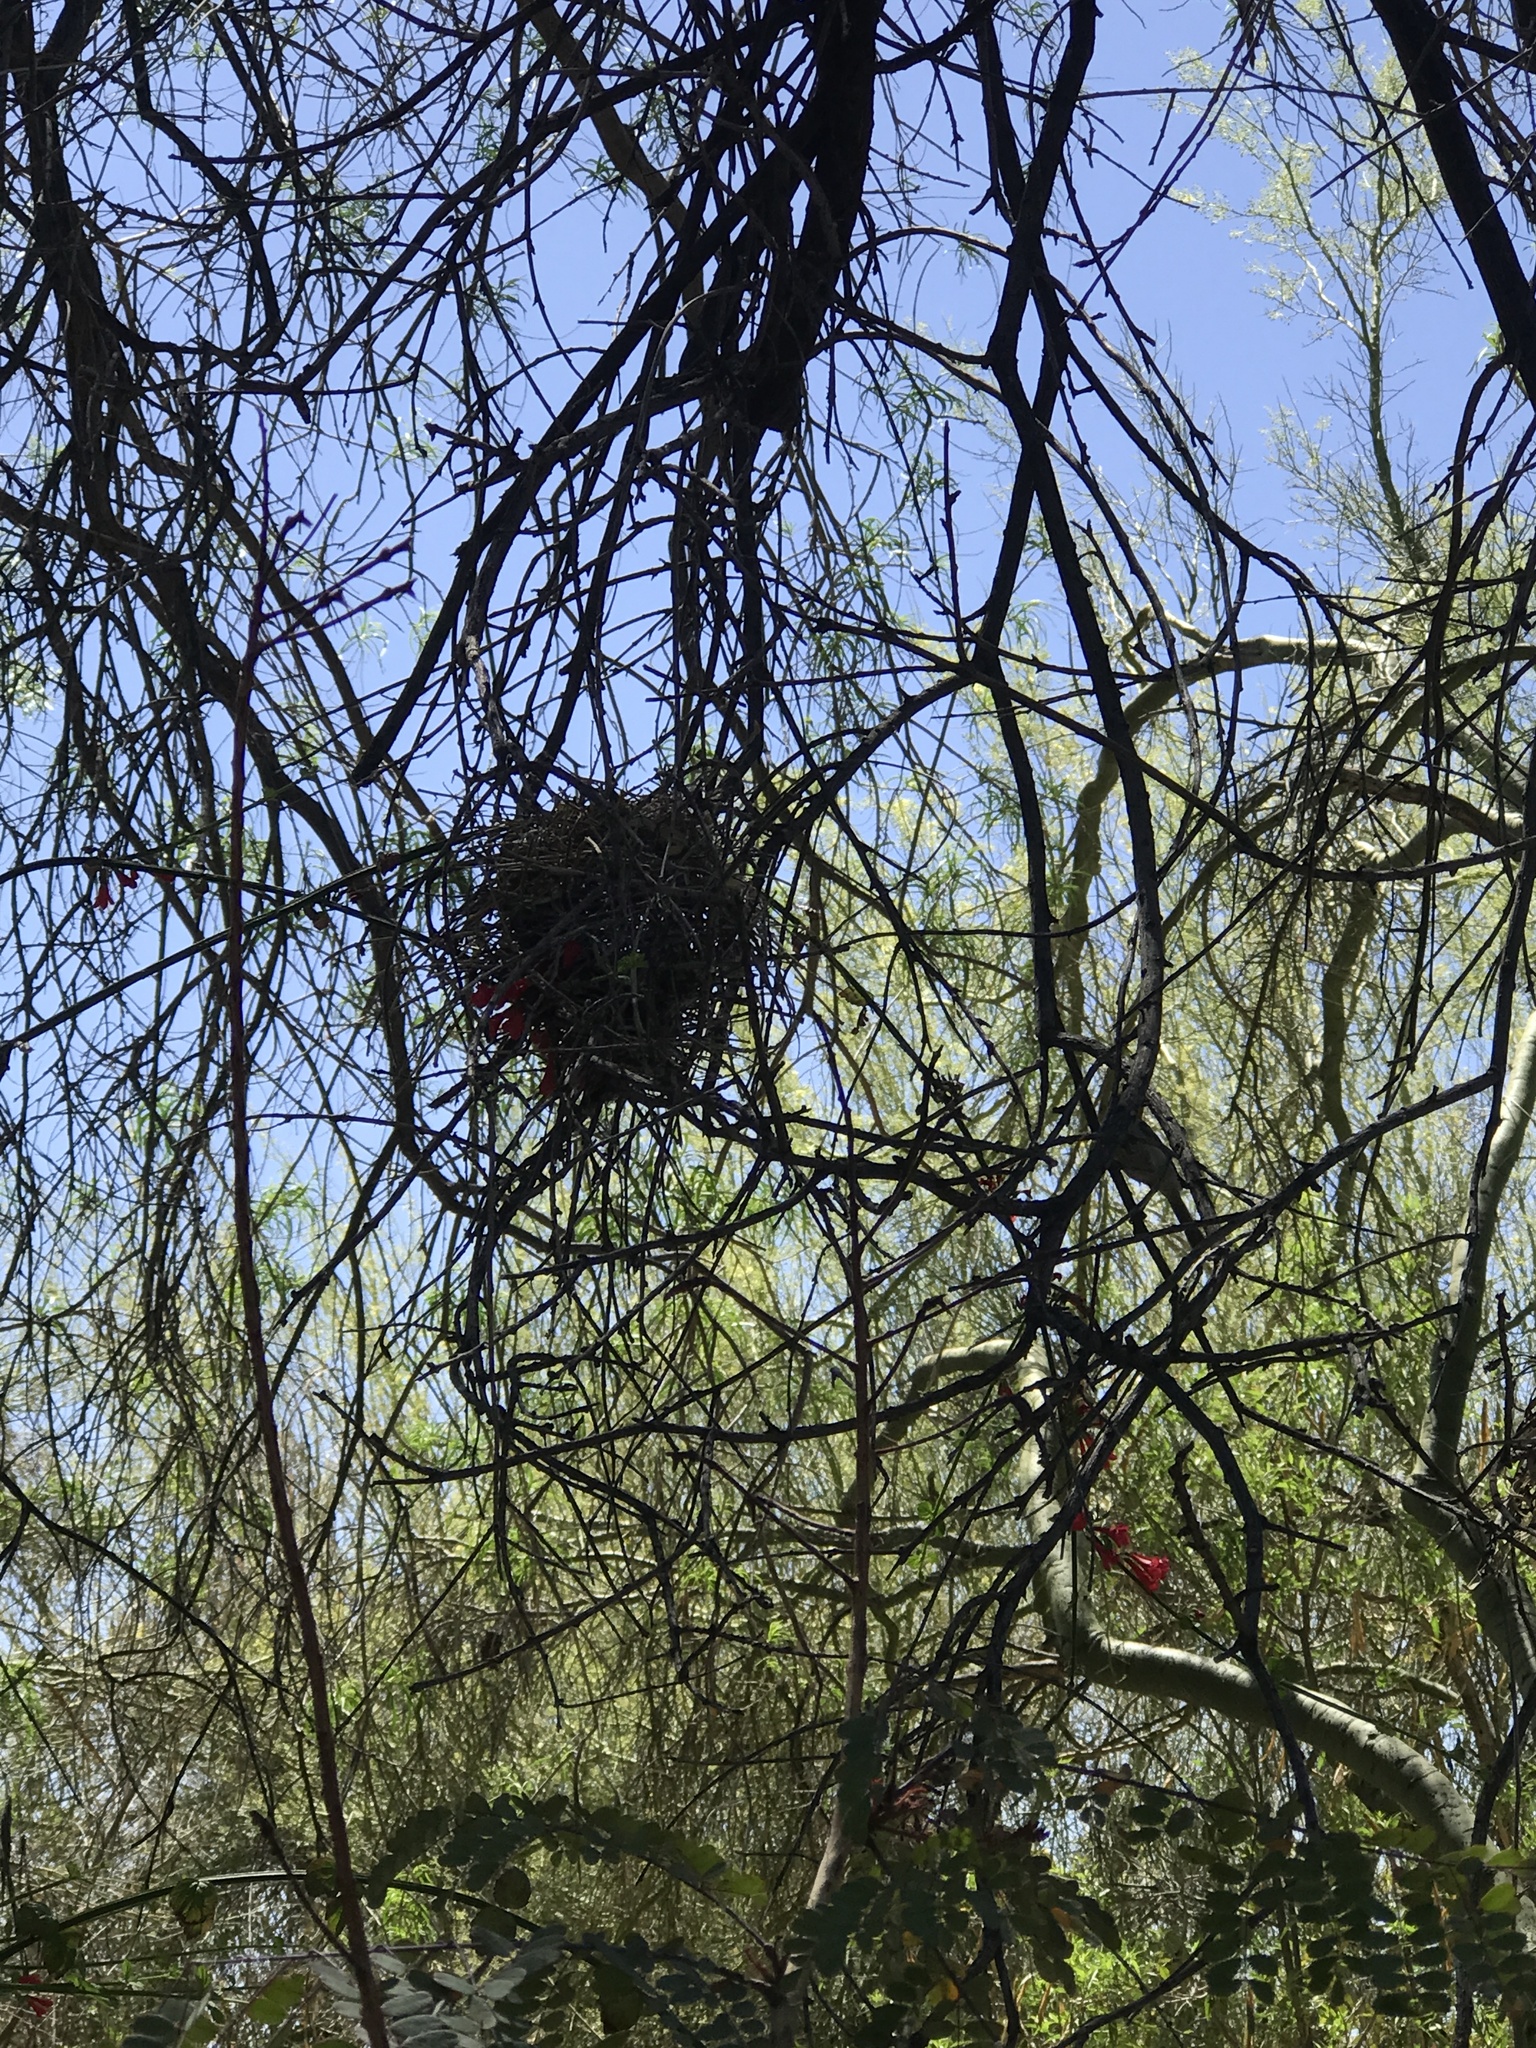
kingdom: Animalia
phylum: Chordata
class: Aves
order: Passeriformes
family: Remizidae
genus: Auriparus
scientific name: Auriparus flaviceps
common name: Verdin
